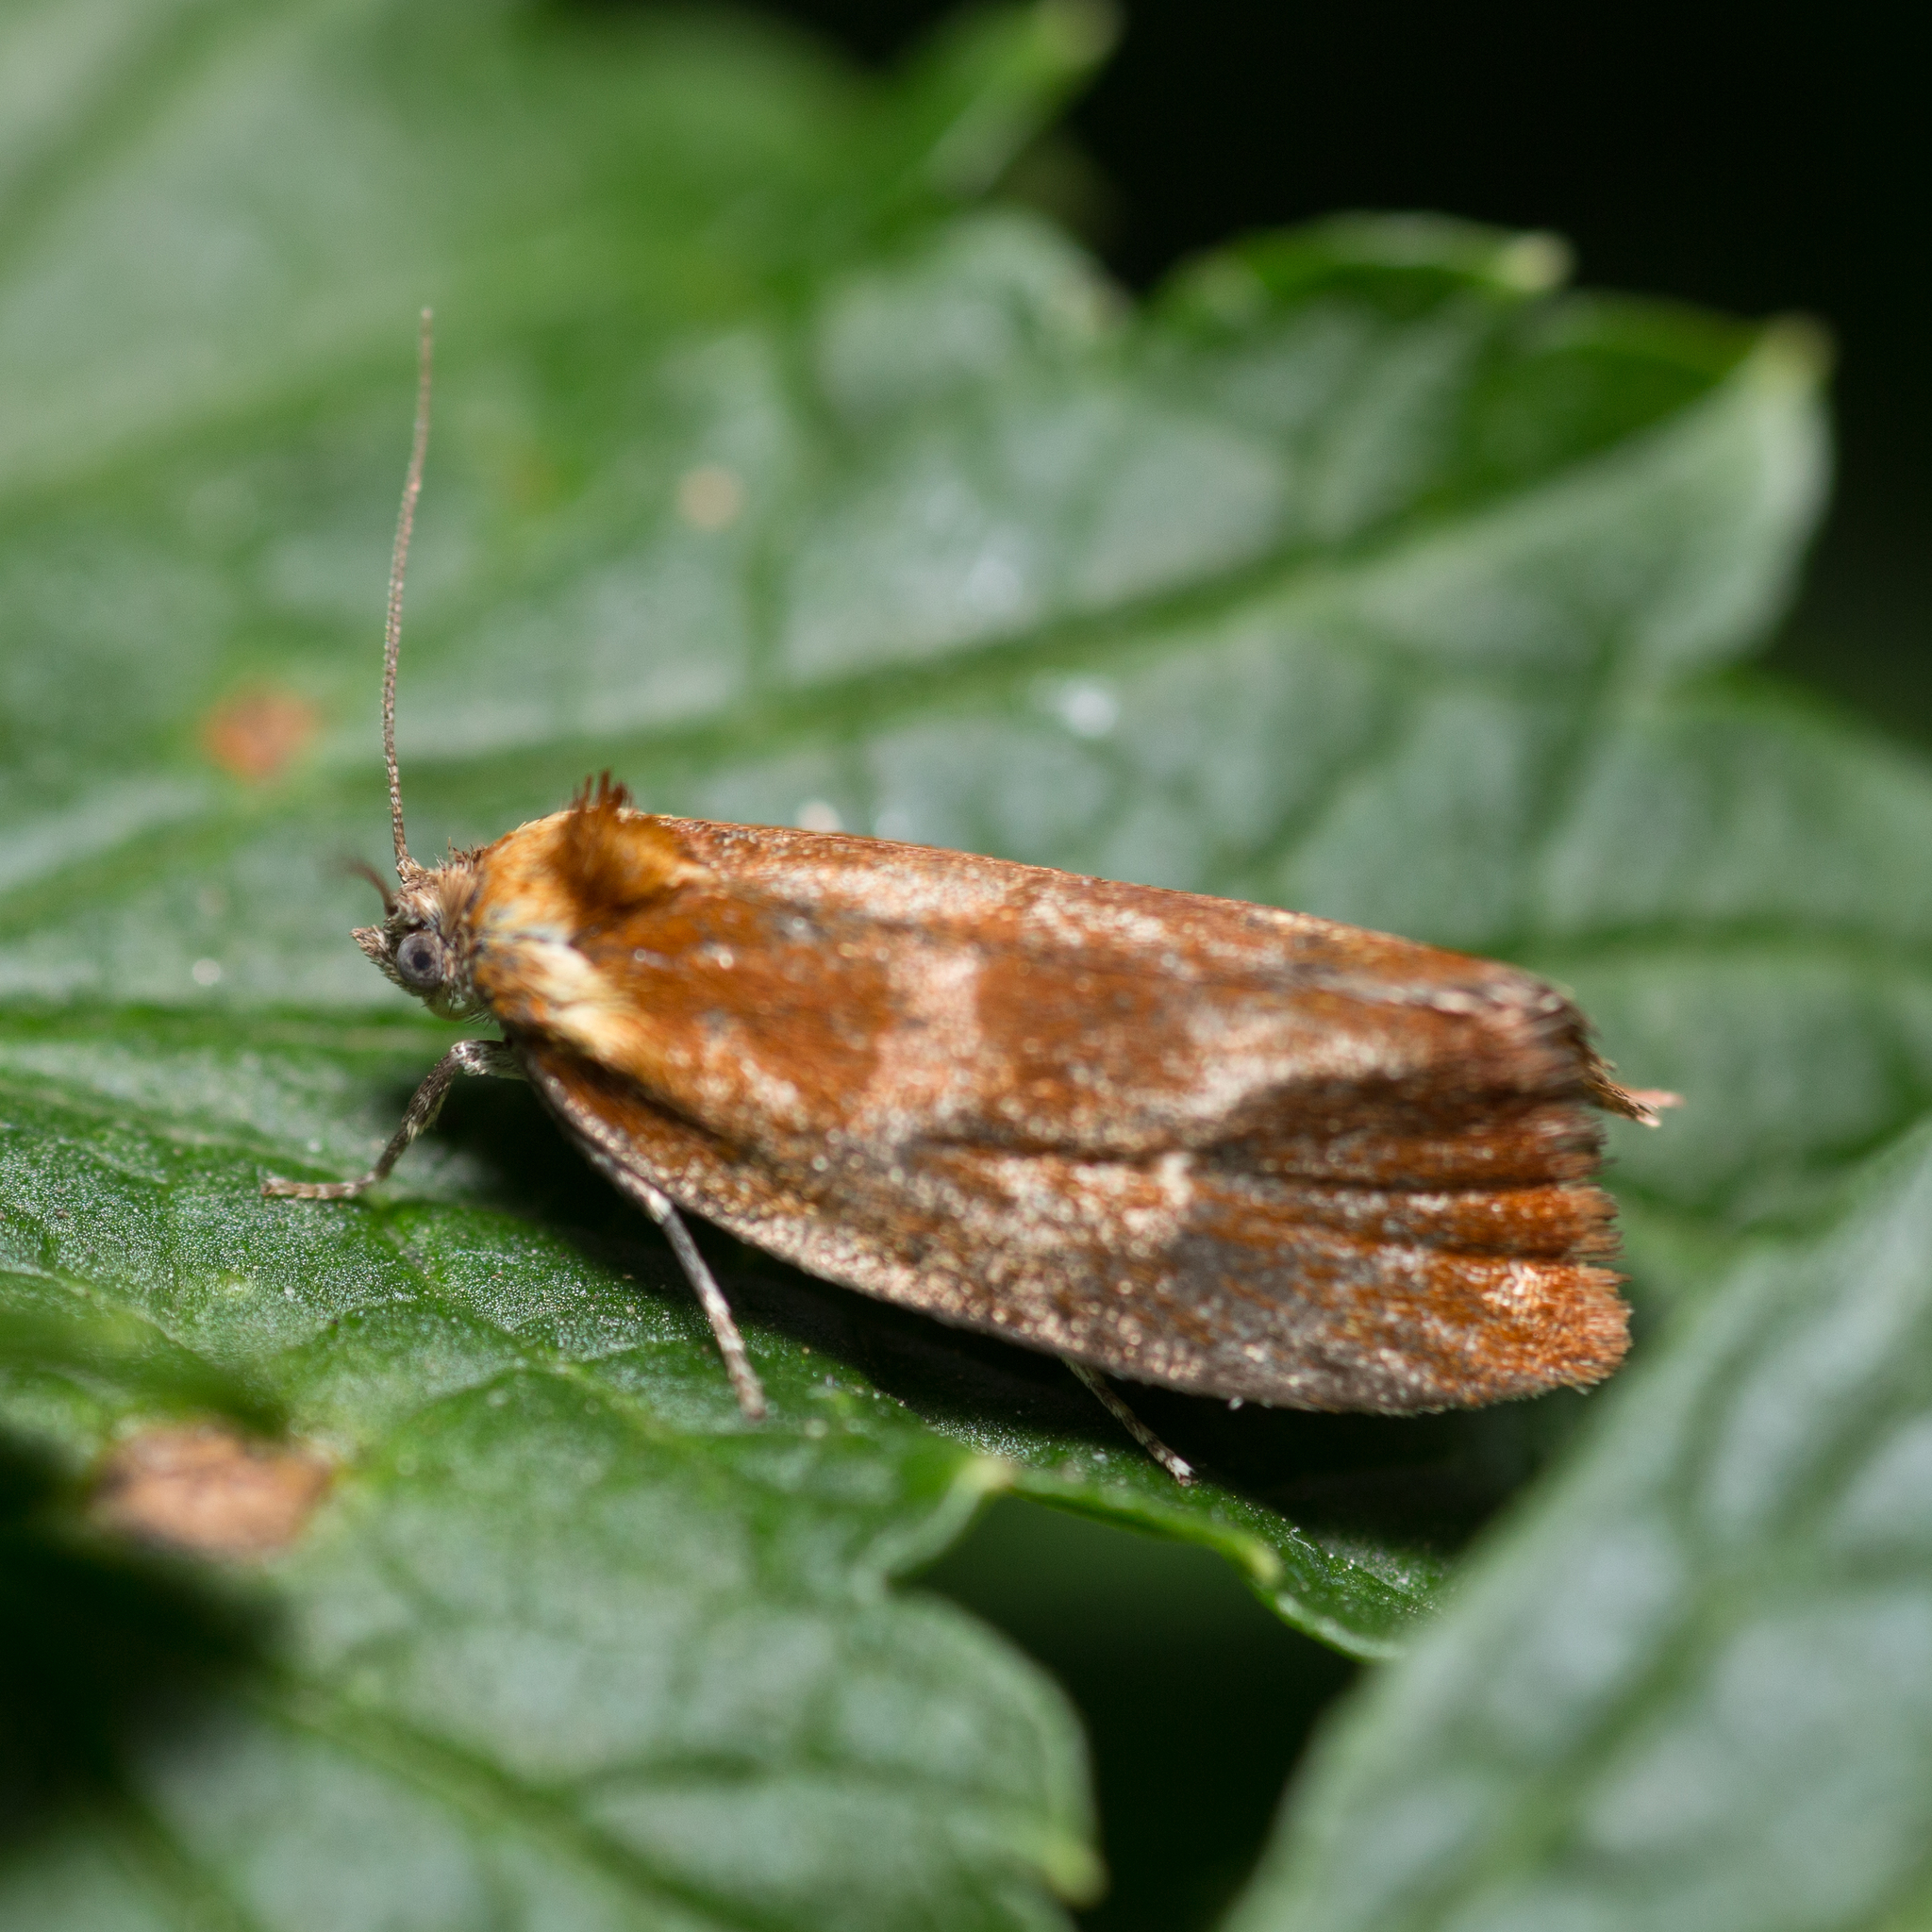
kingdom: Animalia
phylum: Arthropoda
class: Insecta
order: Lepidoptera
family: Tortricidae
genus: Eulia
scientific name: Eulia ministrana
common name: Brassy twist
